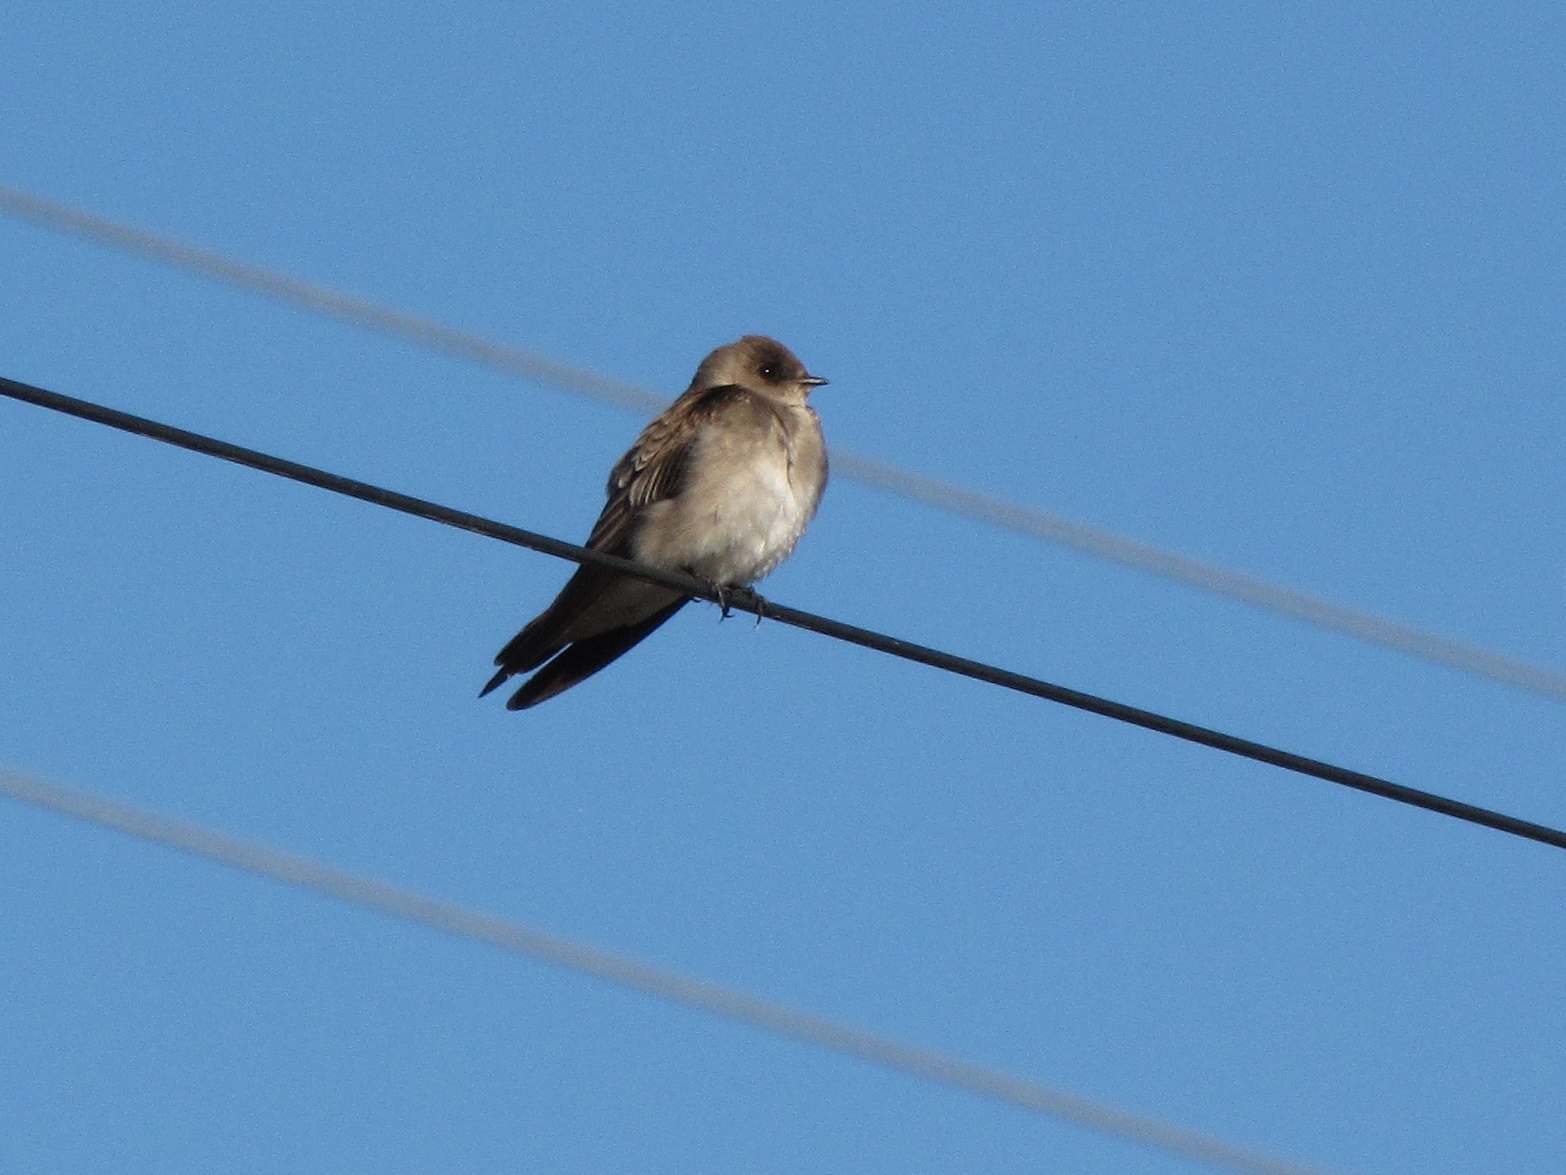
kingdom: Animalia
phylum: Chordata
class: Aves
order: Passeriformes
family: Hirundinidae
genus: Stelgidopteryx
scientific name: Stelgidopteryx serripennis
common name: Northern rough-winged swallow
